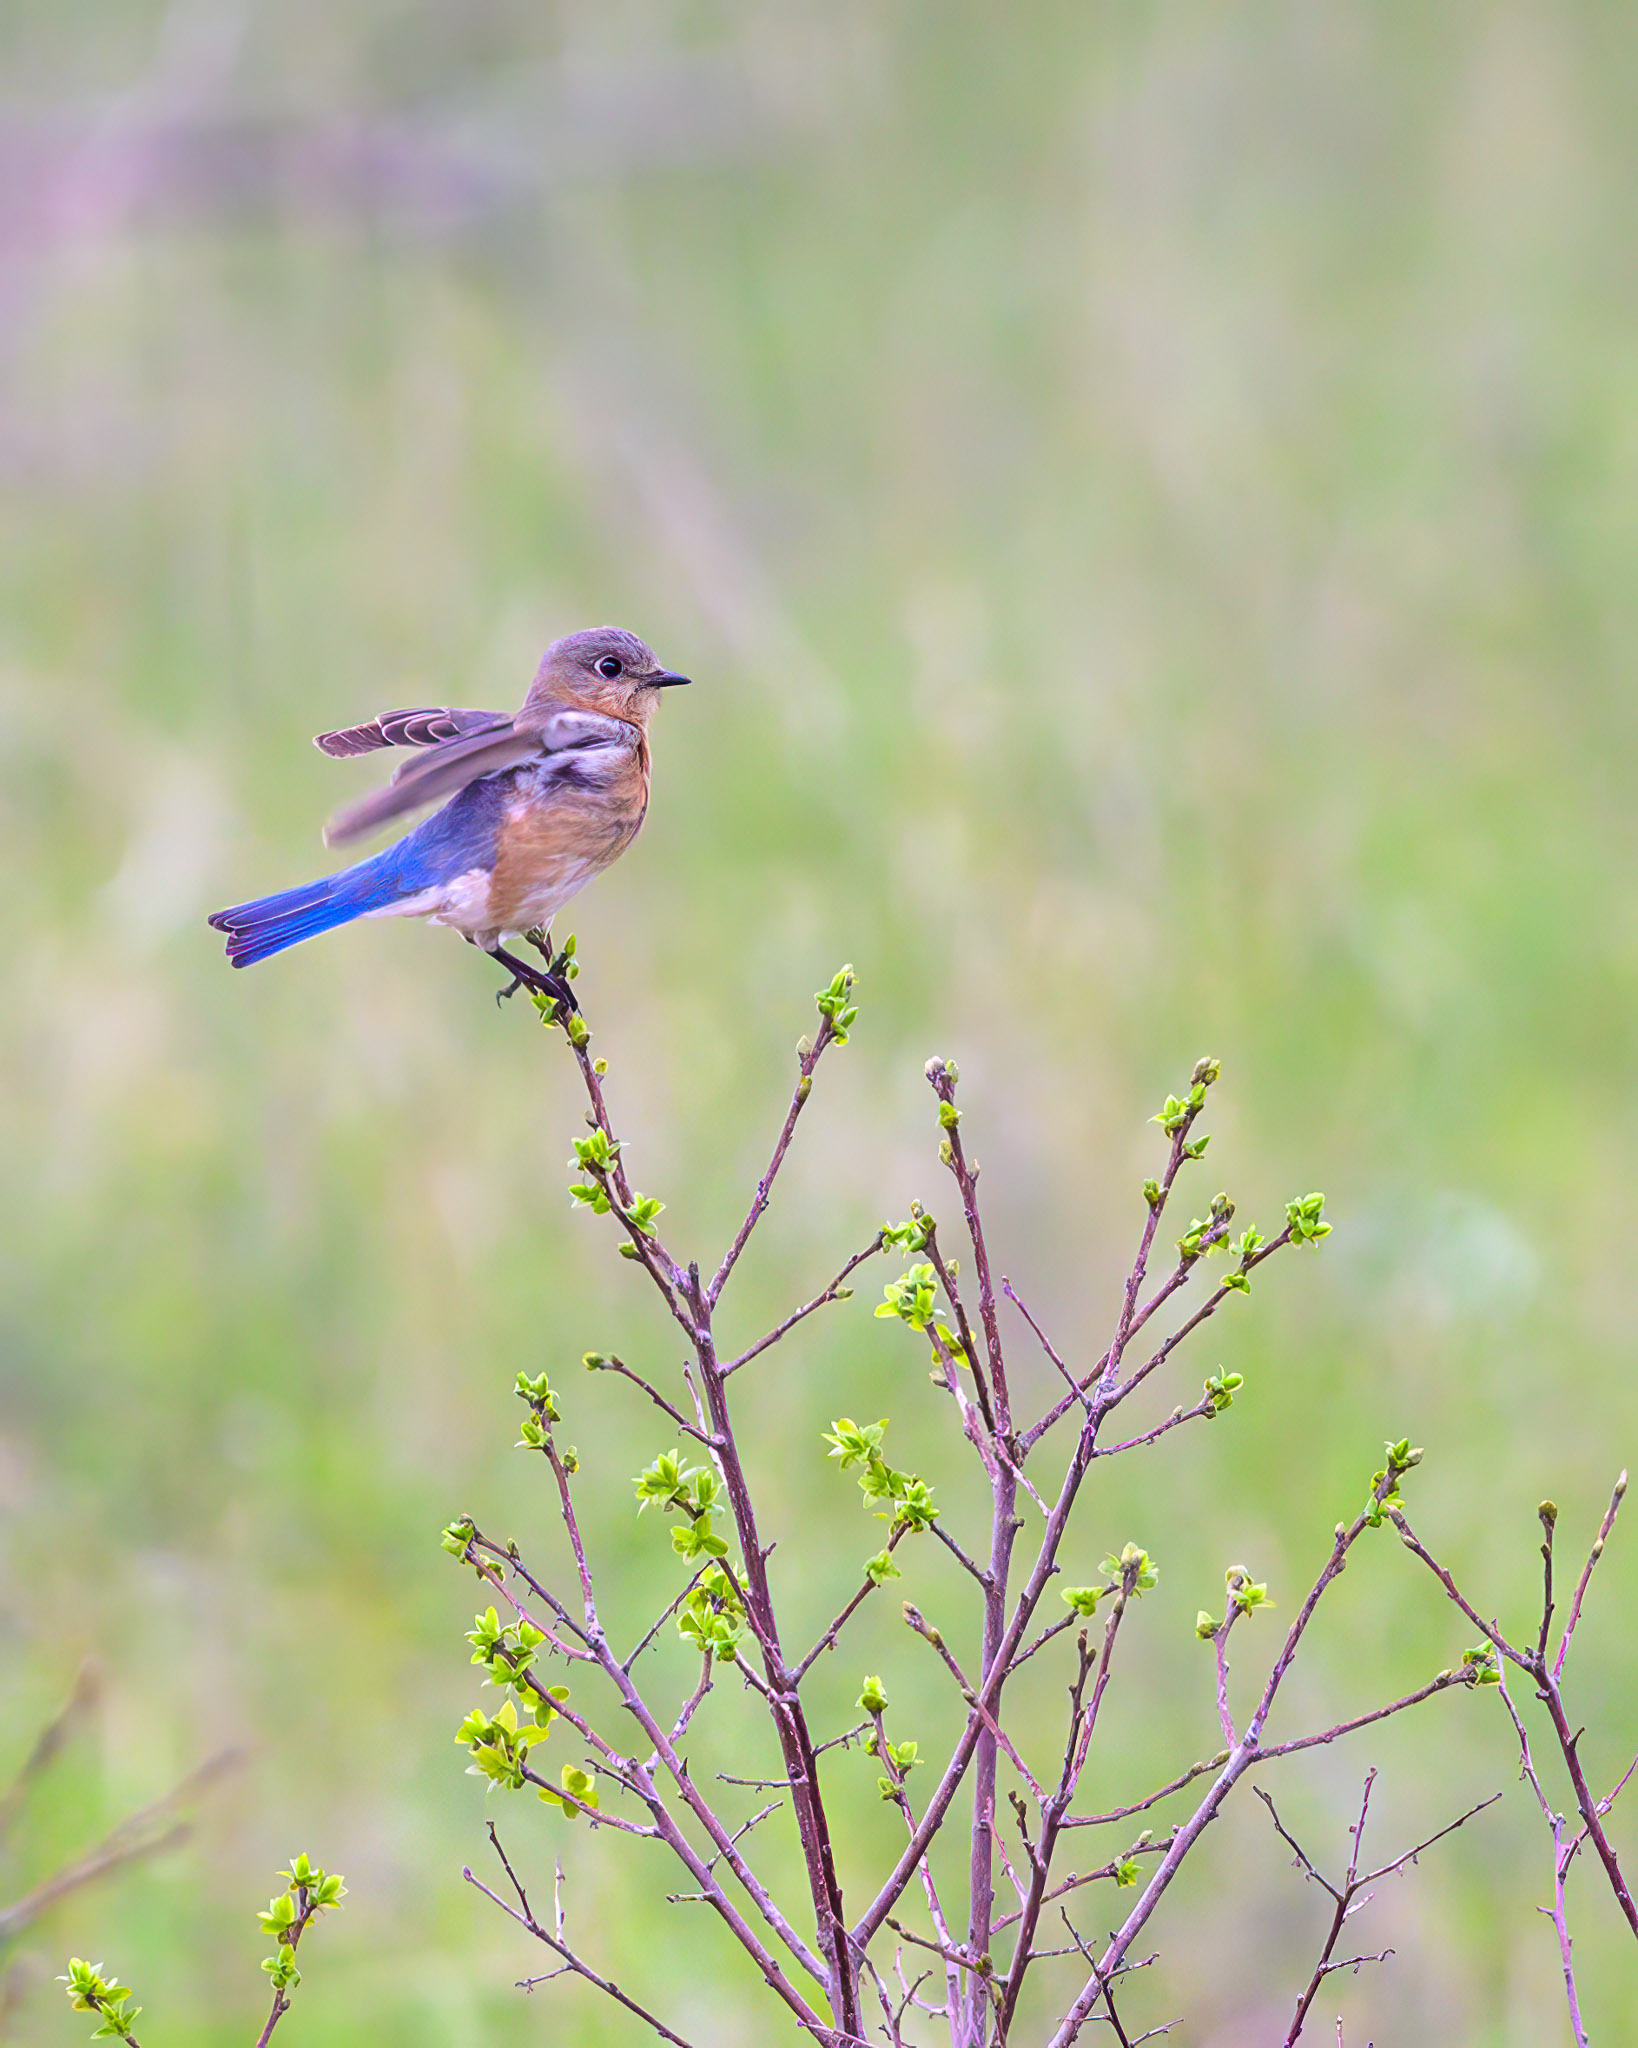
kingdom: Animalia
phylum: Chordata
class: Aves
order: Passeriformes
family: Turdidae
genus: Sialia
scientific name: Sialia sialis
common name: Eastern bluebird
